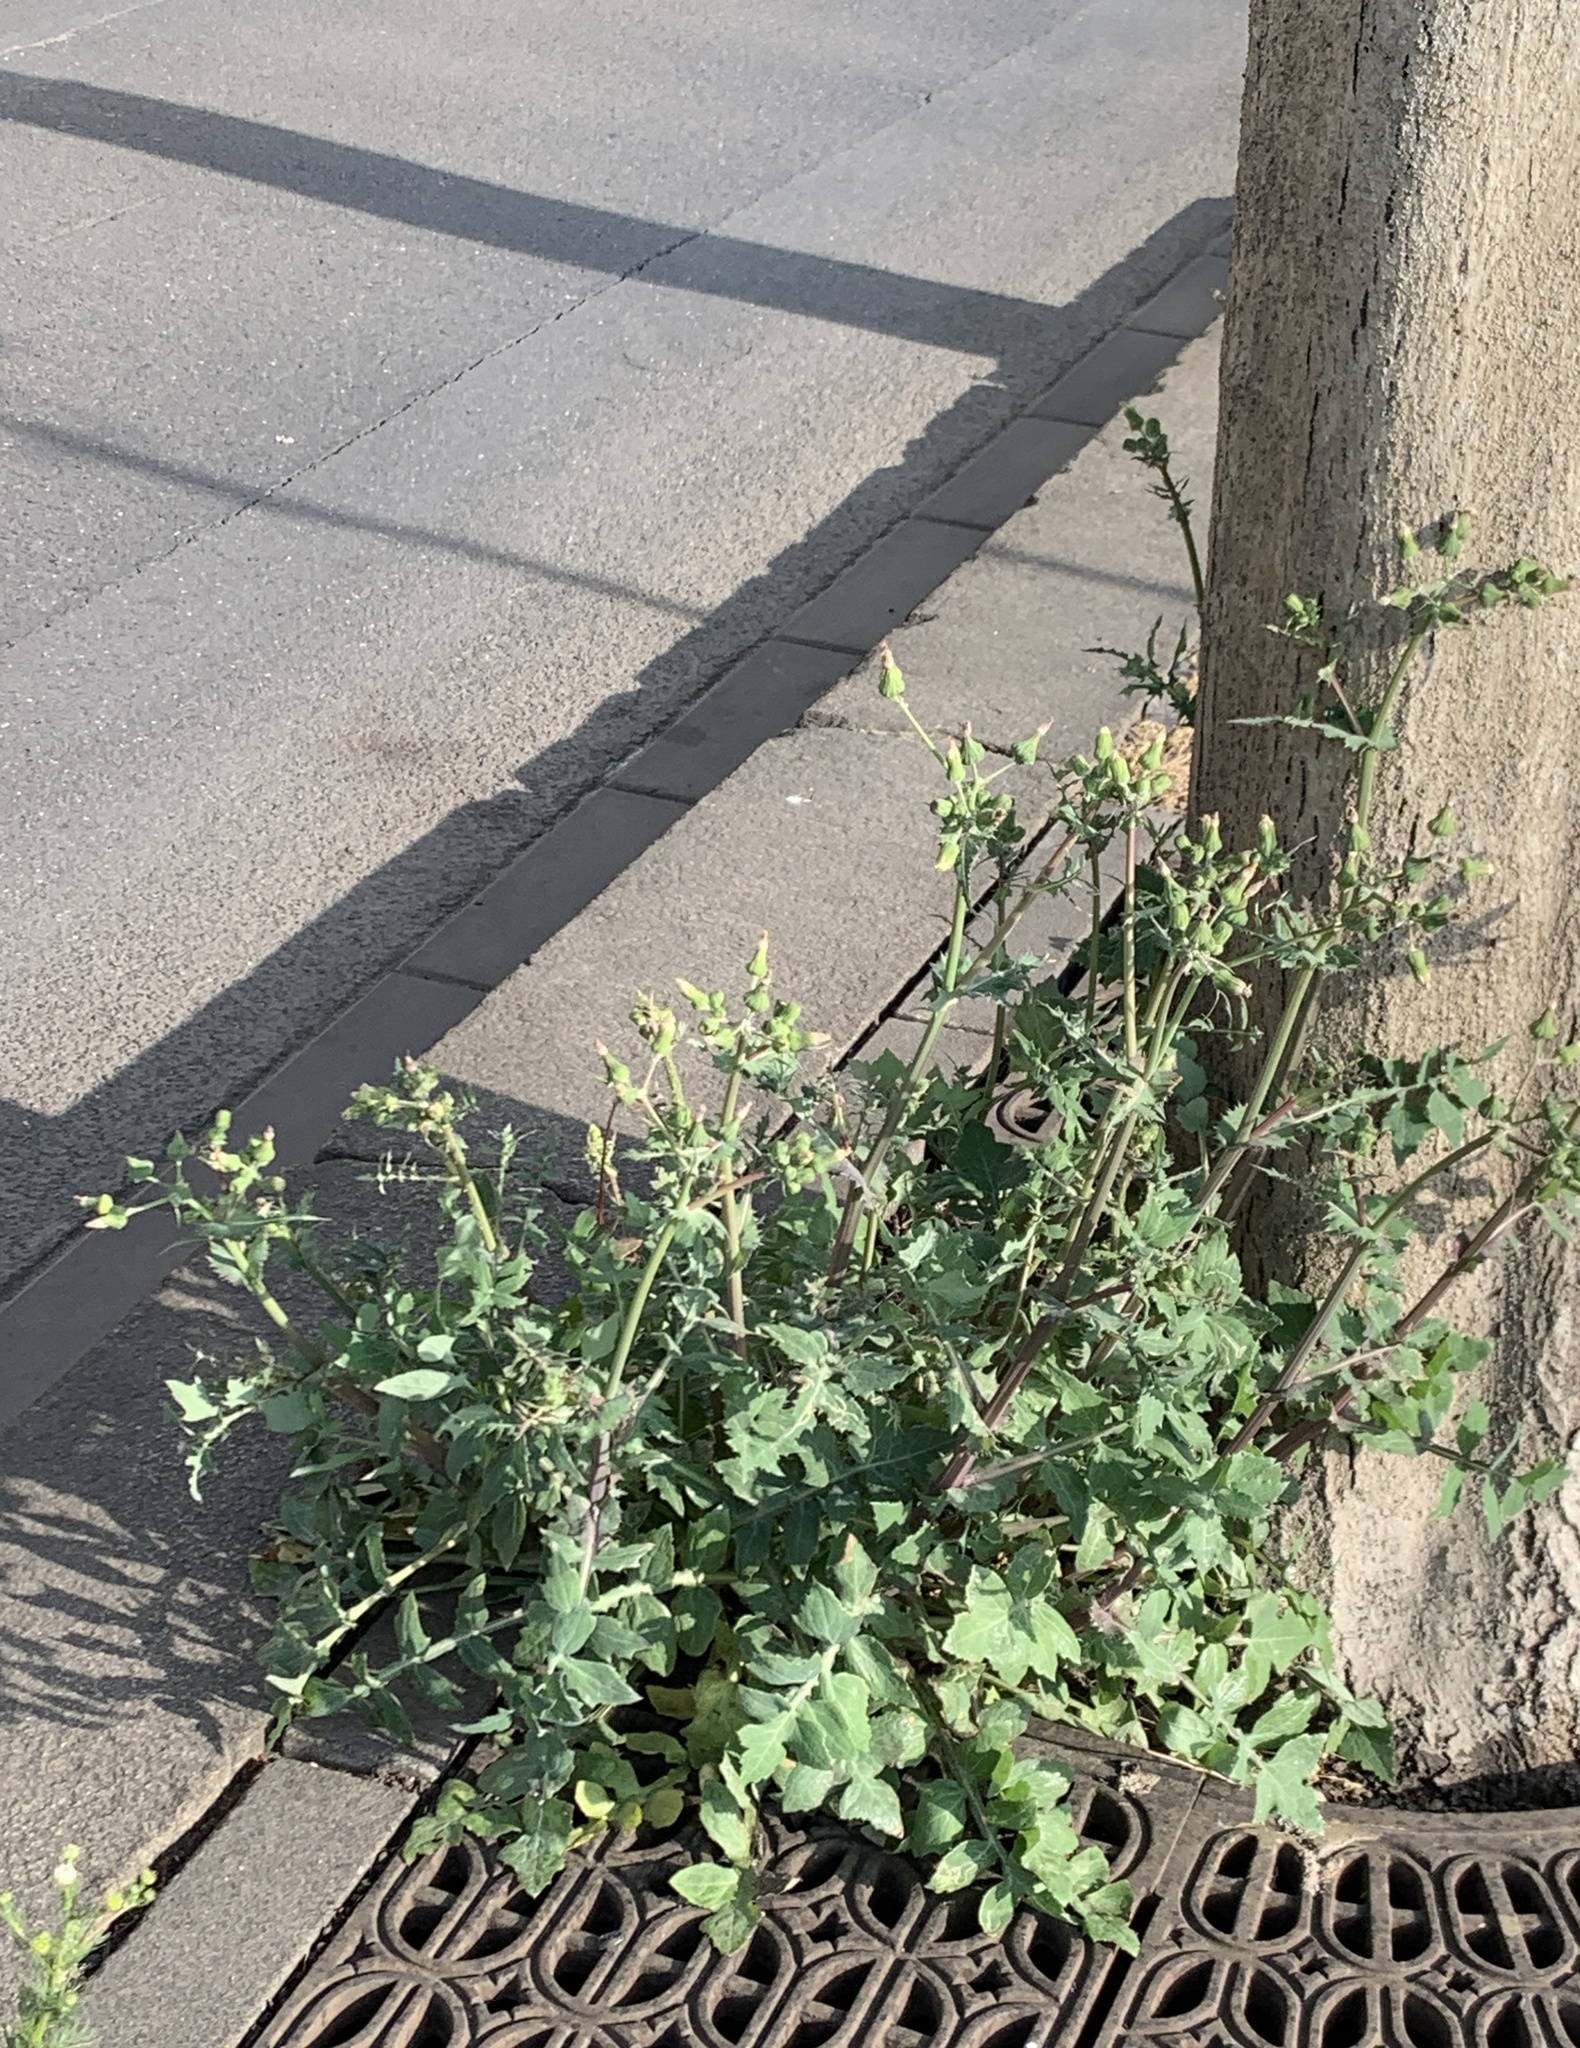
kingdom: Plantae
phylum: Tracheophyta
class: Magnoliopsida
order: Asterales
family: Asteraceae
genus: Sonchus
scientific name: Sonchus oleraceus
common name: Common sowthistle
